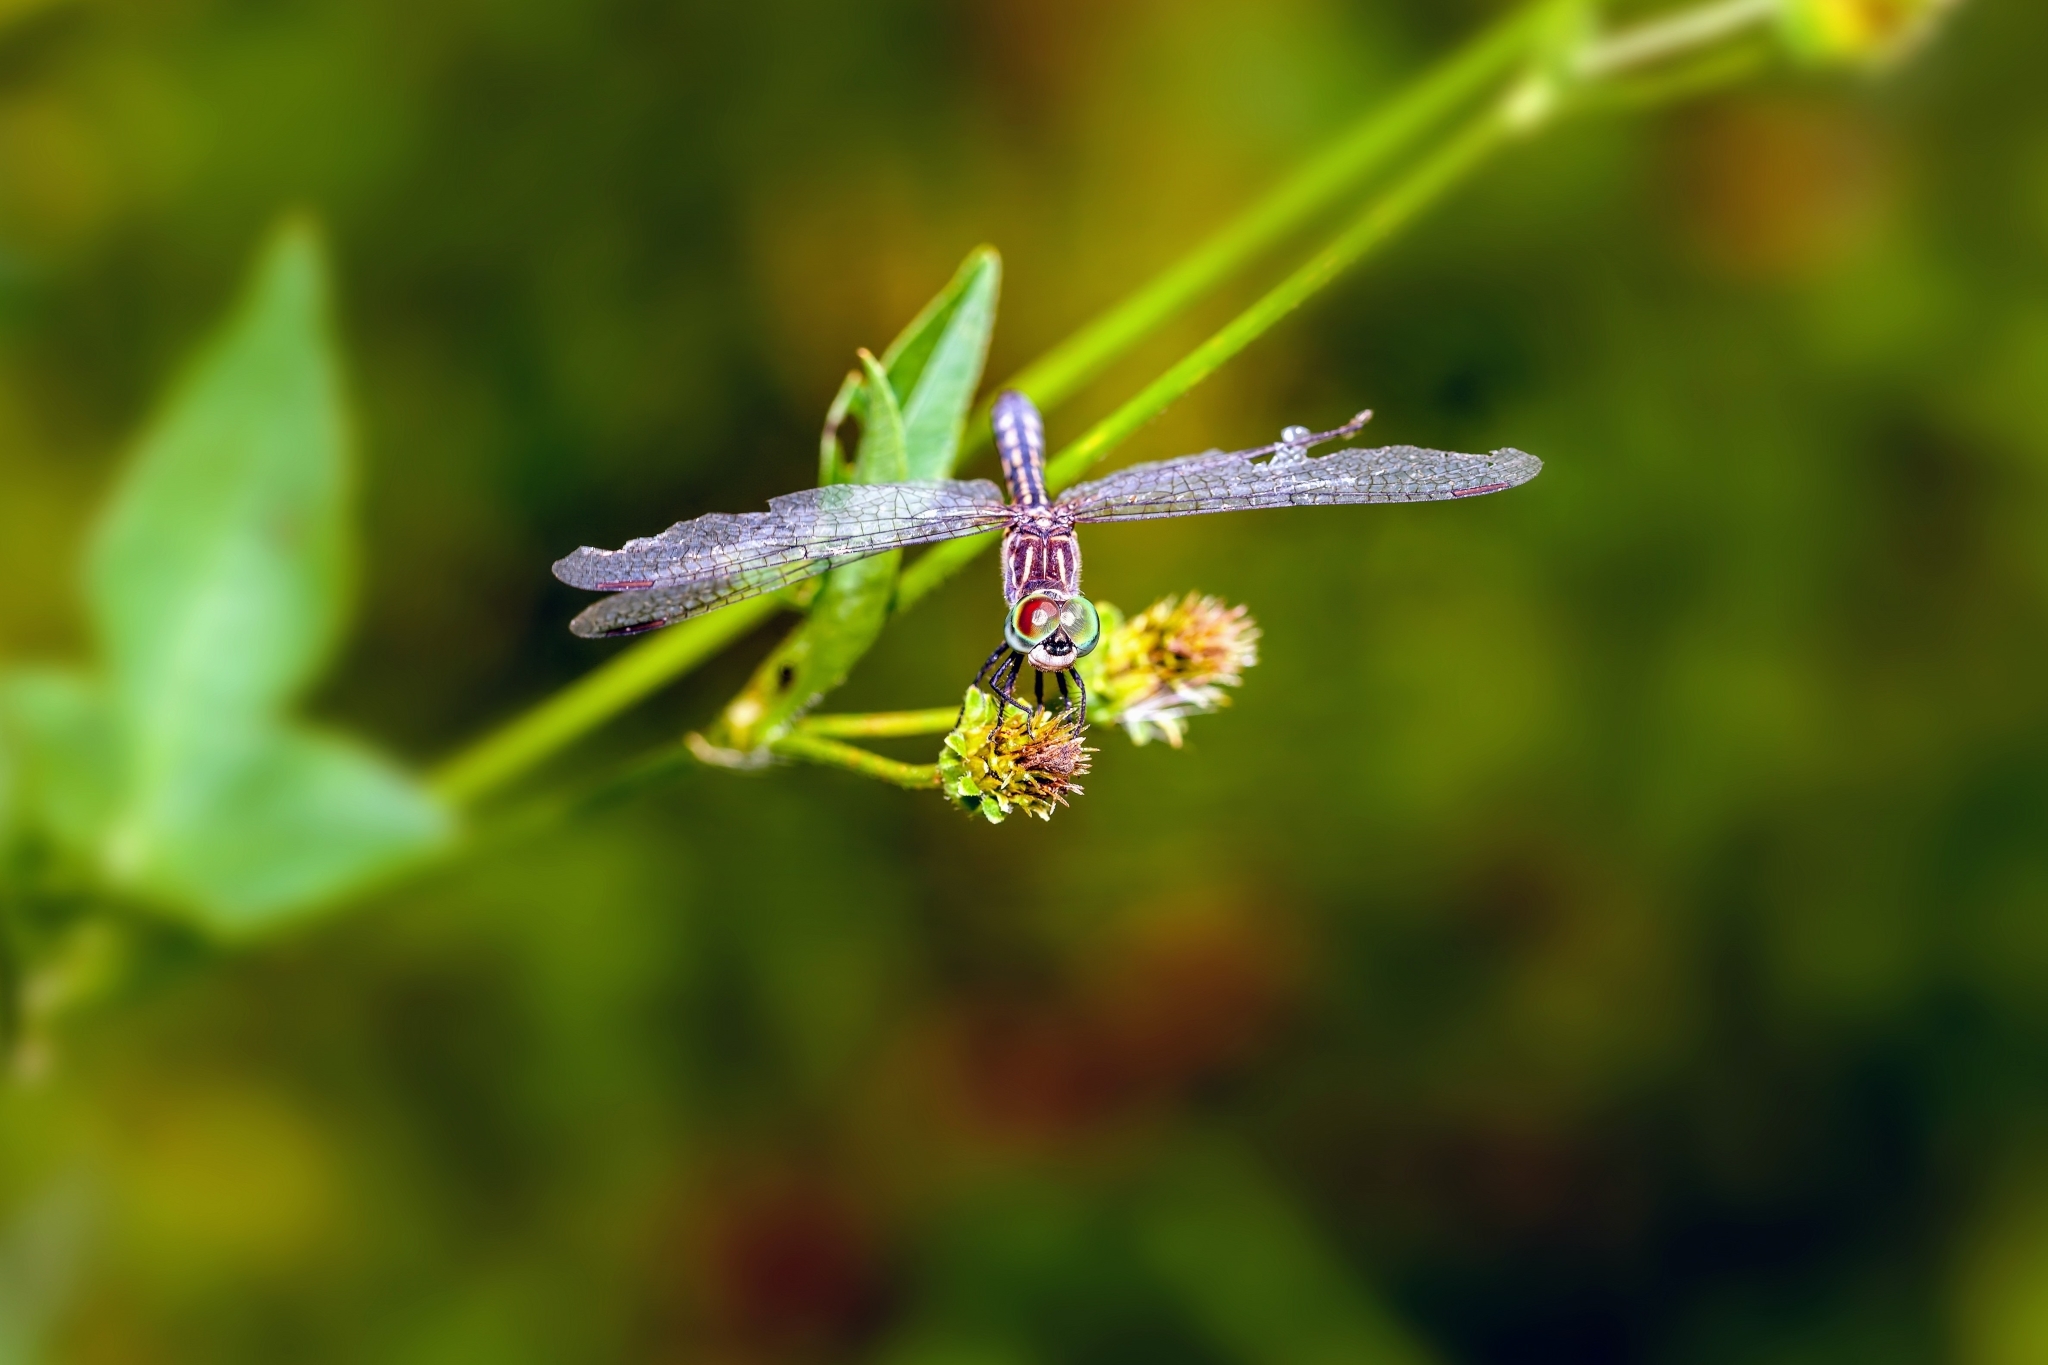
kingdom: Animalia
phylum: Arthropoda
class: Insecta
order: Odonata
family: Libellulidae
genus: Pachydiplax
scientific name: Pachydiplax longipennis
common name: Blue dasher
